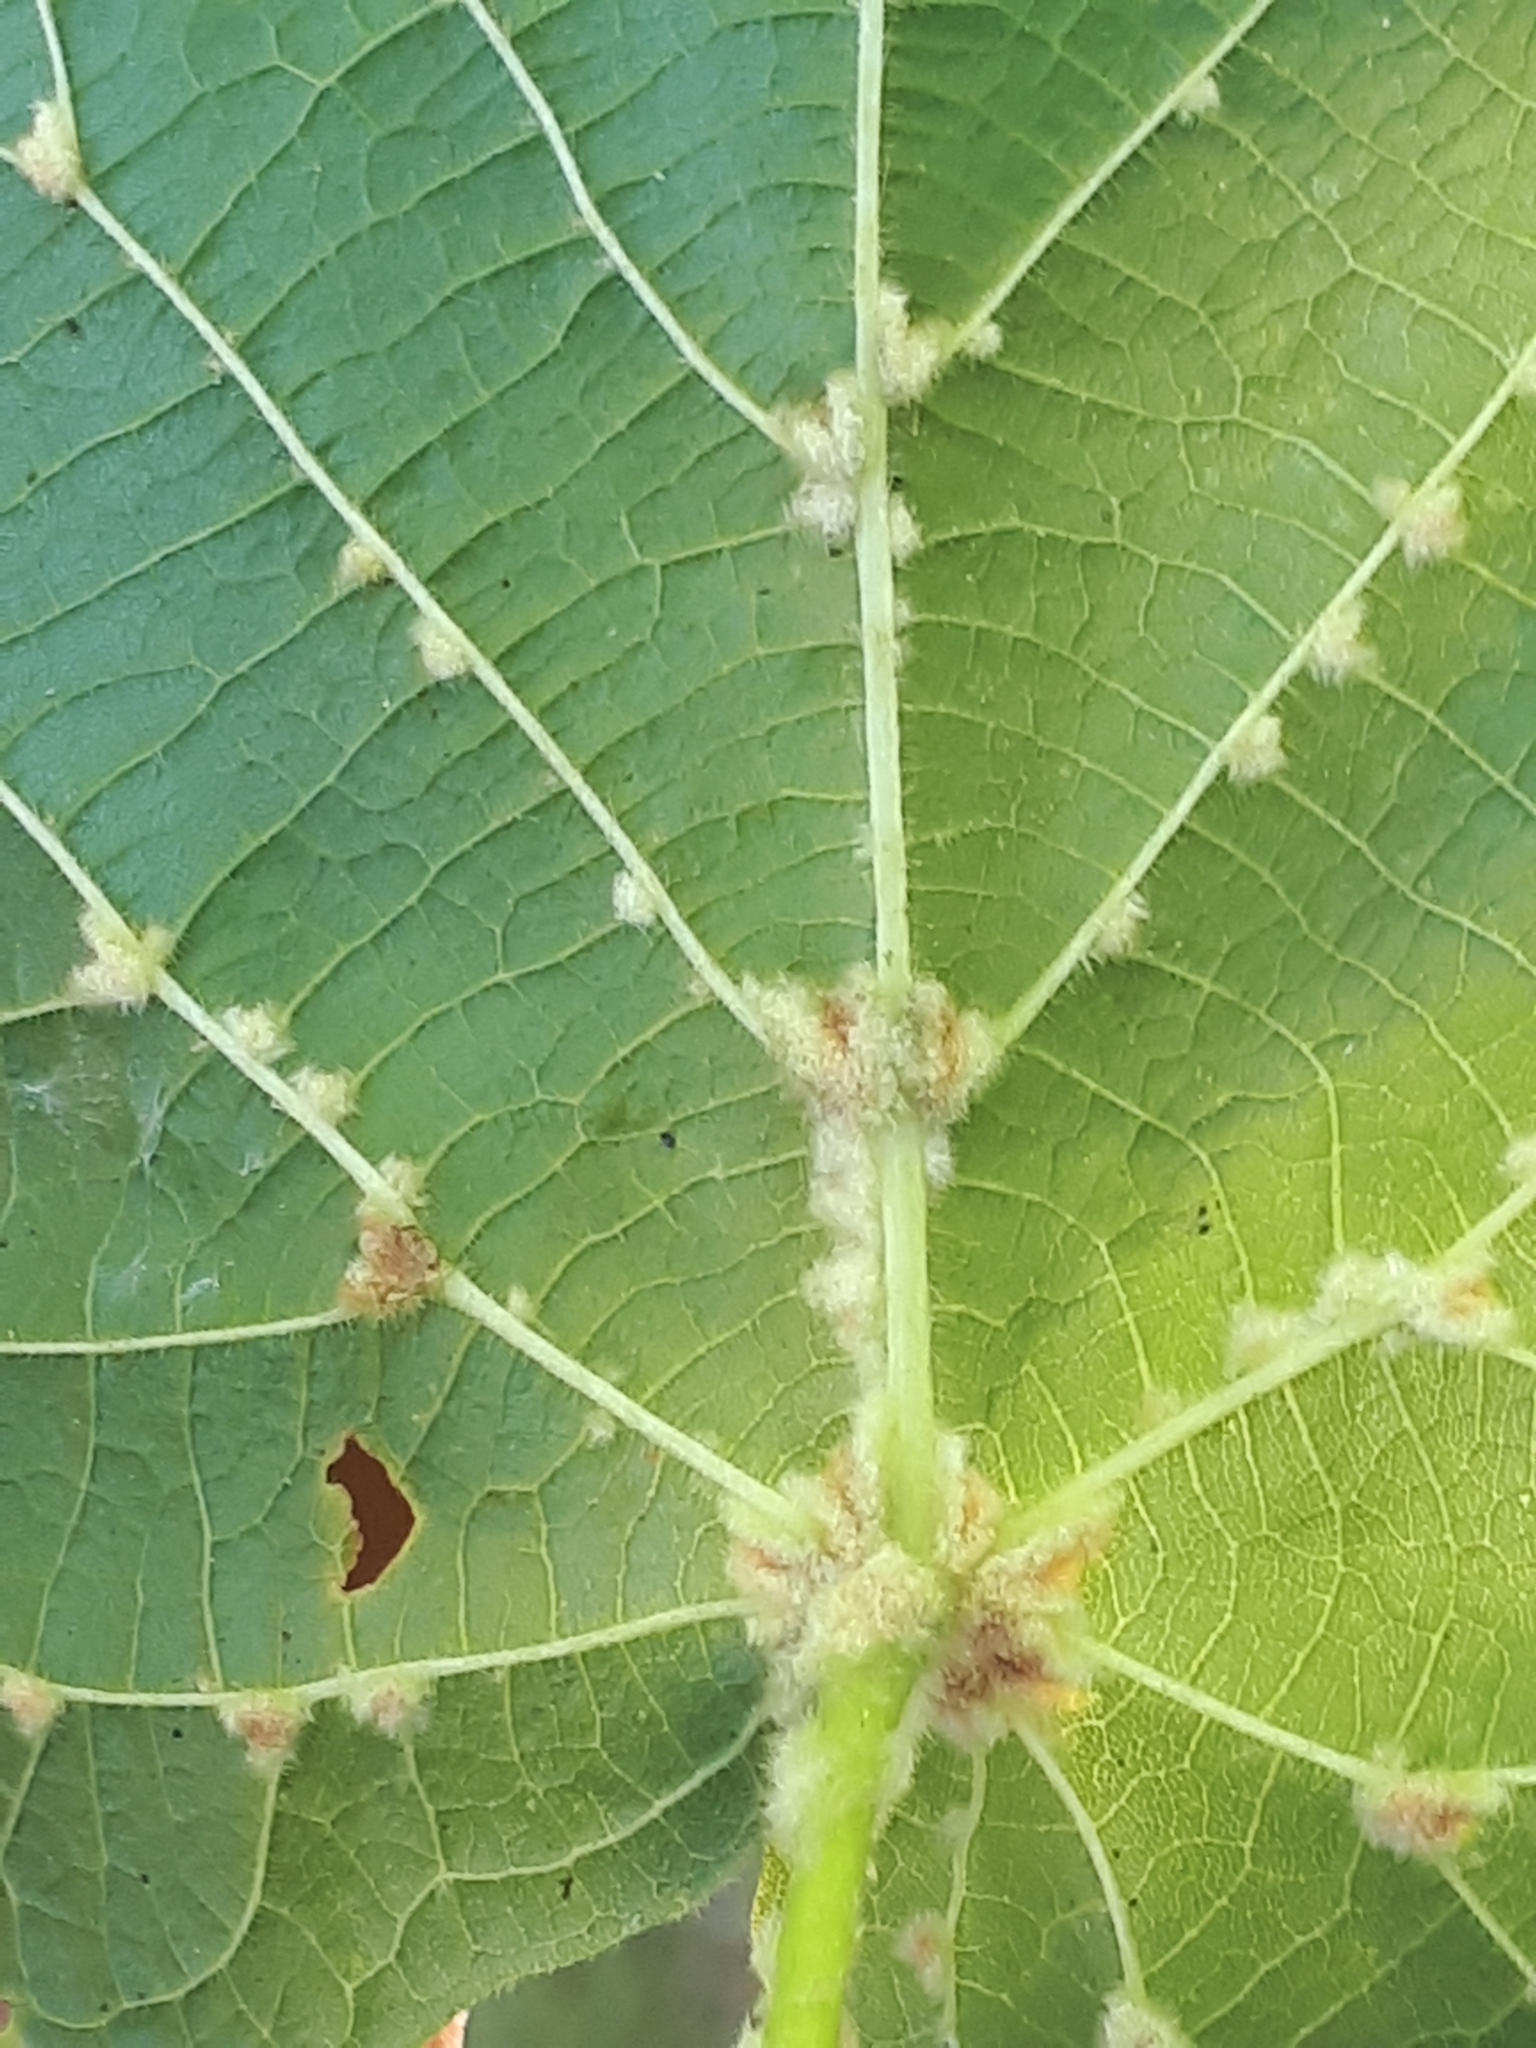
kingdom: Animalia
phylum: Arthropoda
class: Arachnida
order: Trombidiformes
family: Eriophyidae
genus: Eriophyes
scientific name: Eriophyes exilis
